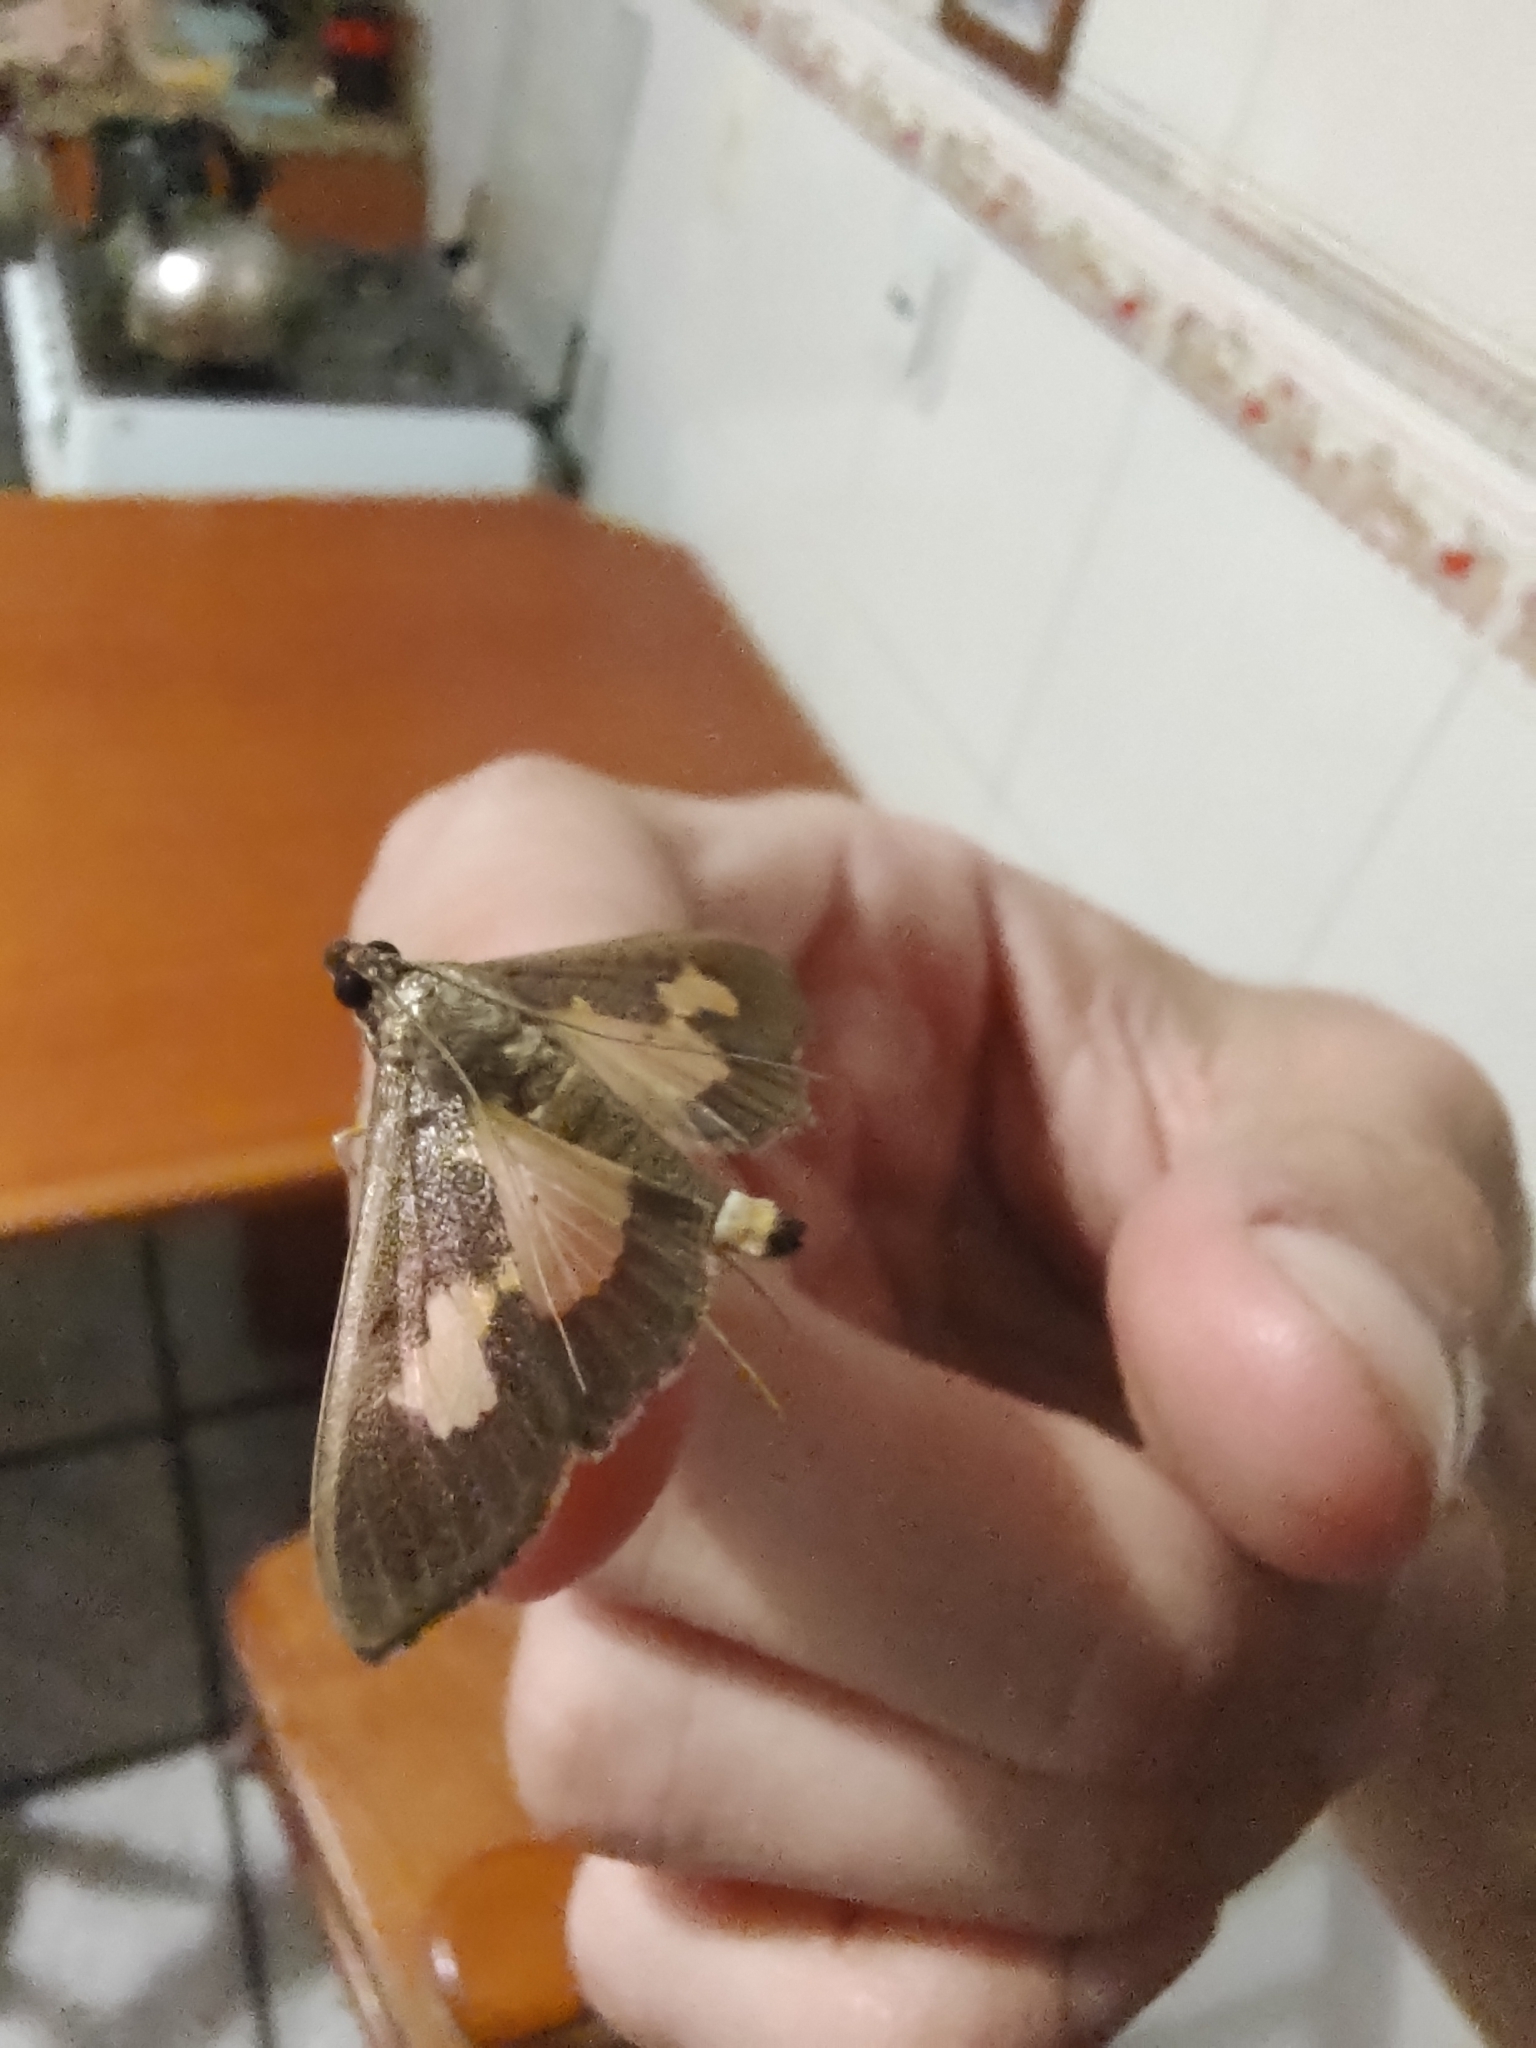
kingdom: Animalia
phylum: Arthropoda
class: Insecta
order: Lepidoptera
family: Crambidae
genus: Cryptographis
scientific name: Cryptographis nitidalis
